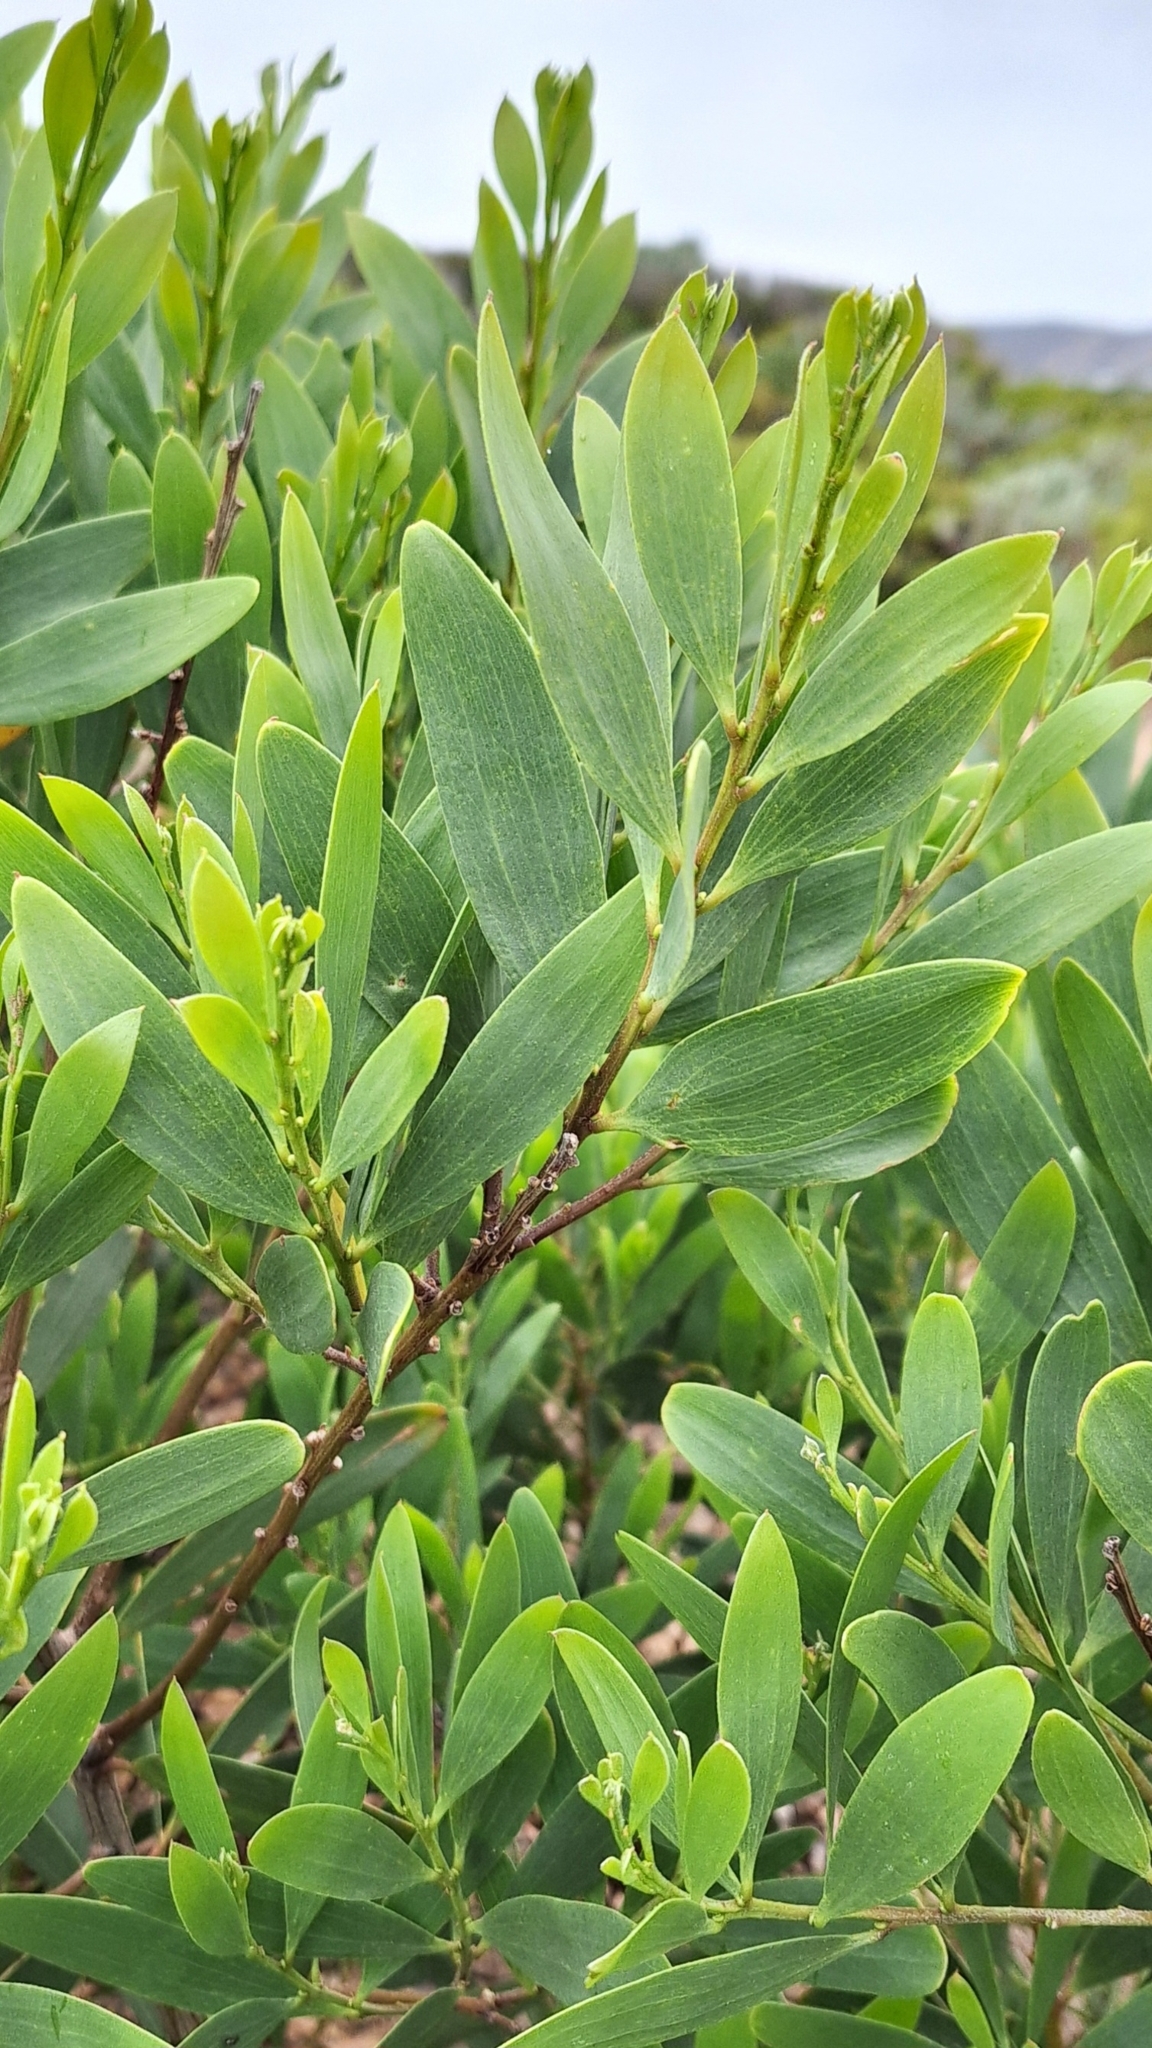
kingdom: Plantae
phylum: Tracheophyta
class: Magnoliopsida
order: Fabales
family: Fabaceae
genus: Acacia
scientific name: Acacia longifolia
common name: Sydney golden wattle
